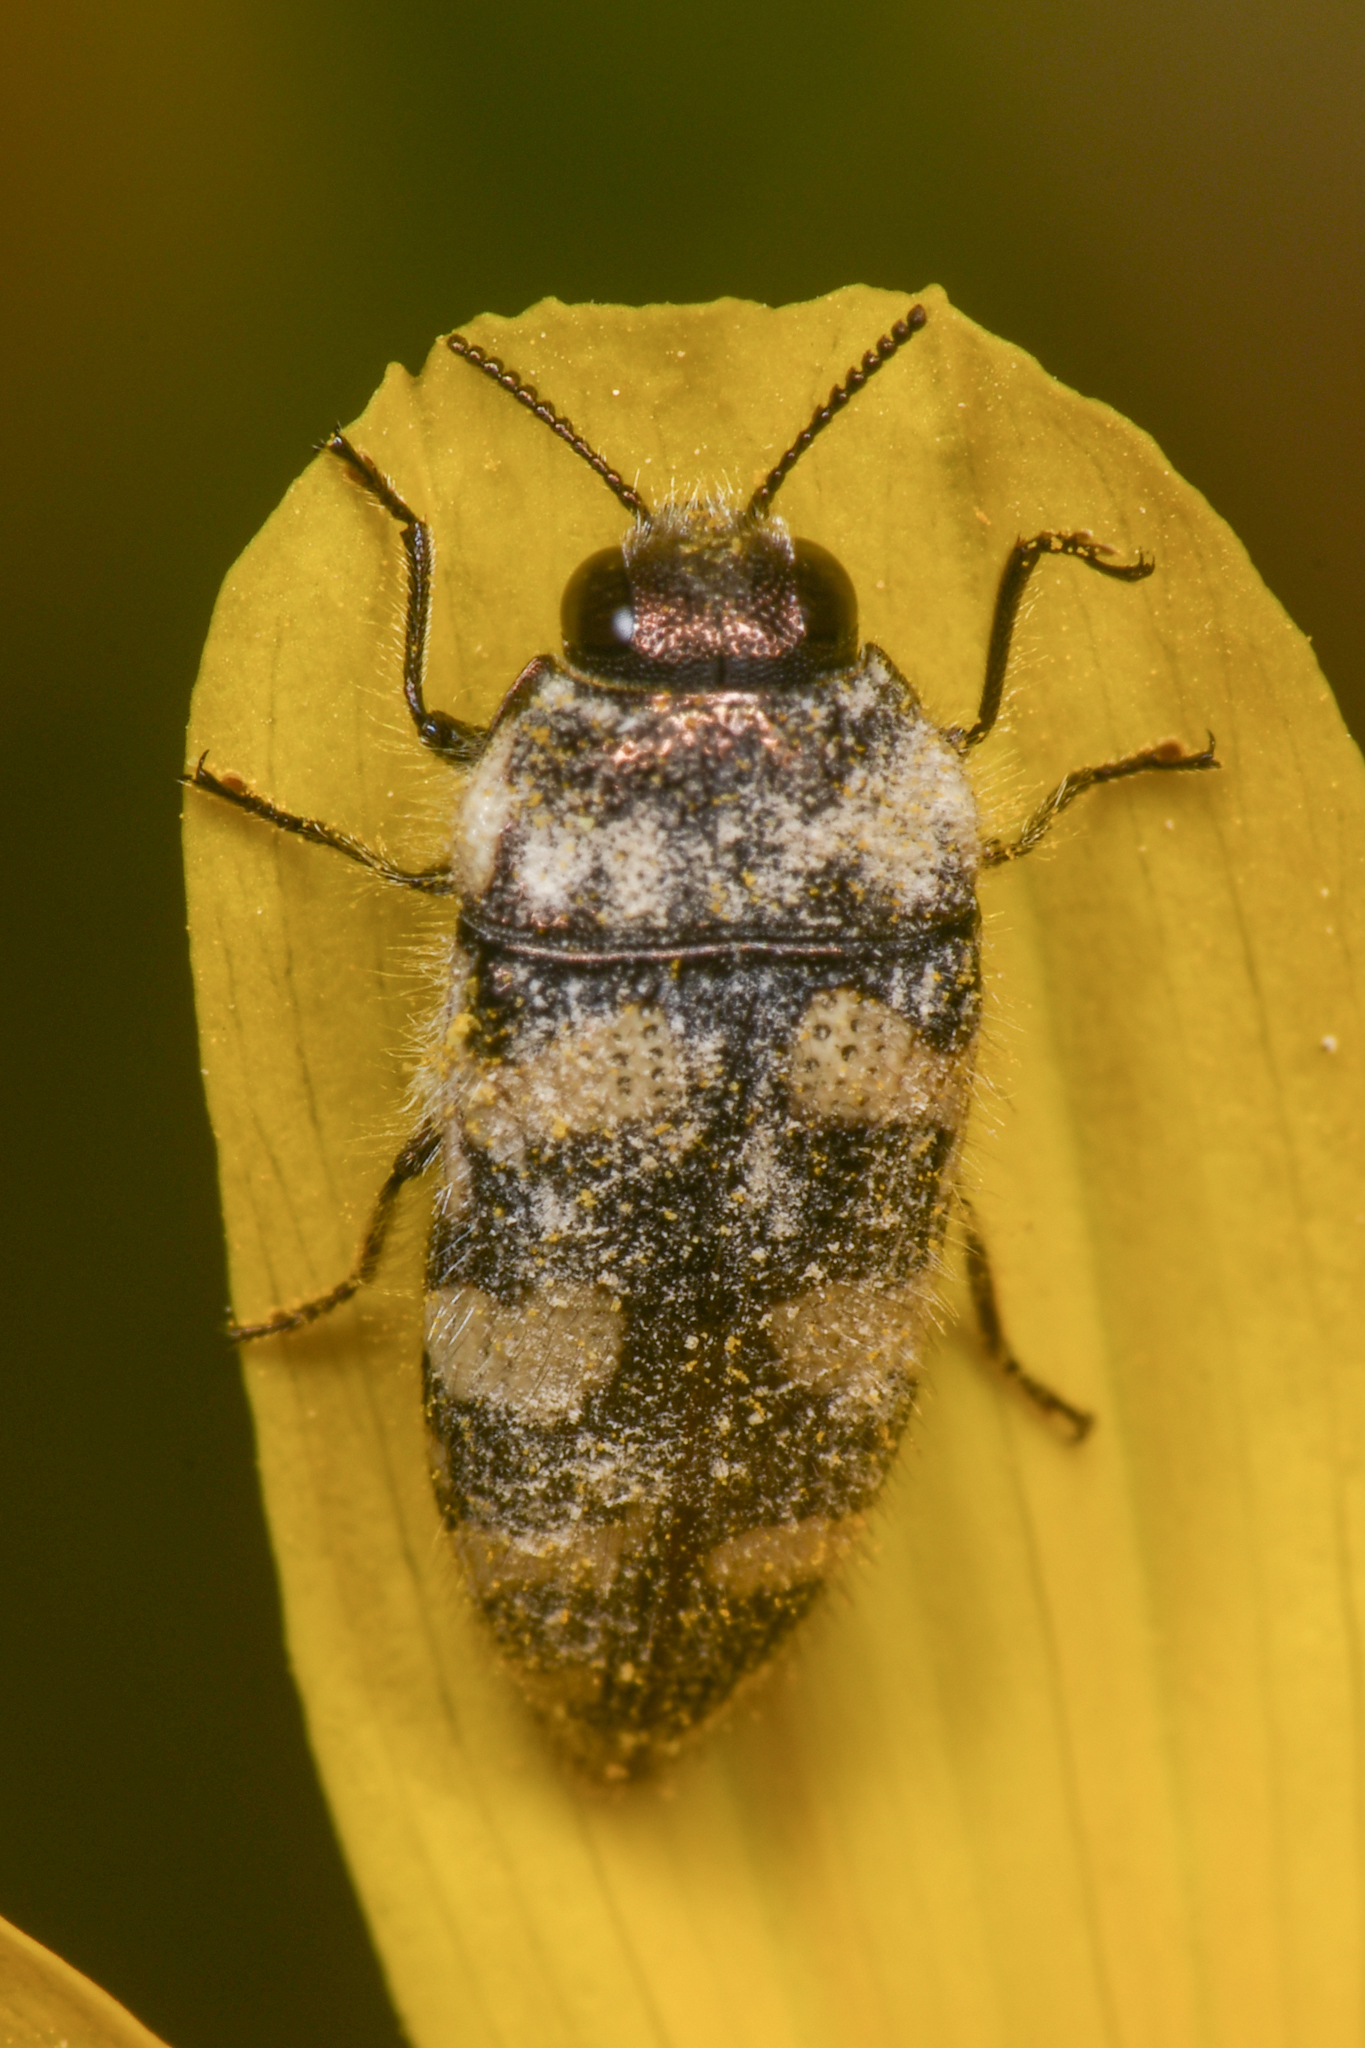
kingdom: Animalia
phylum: Arthropoda
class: Insecta
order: Coleoptera
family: Buprestidae
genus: Acmaeodera
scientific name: Acmaeodera tuta
